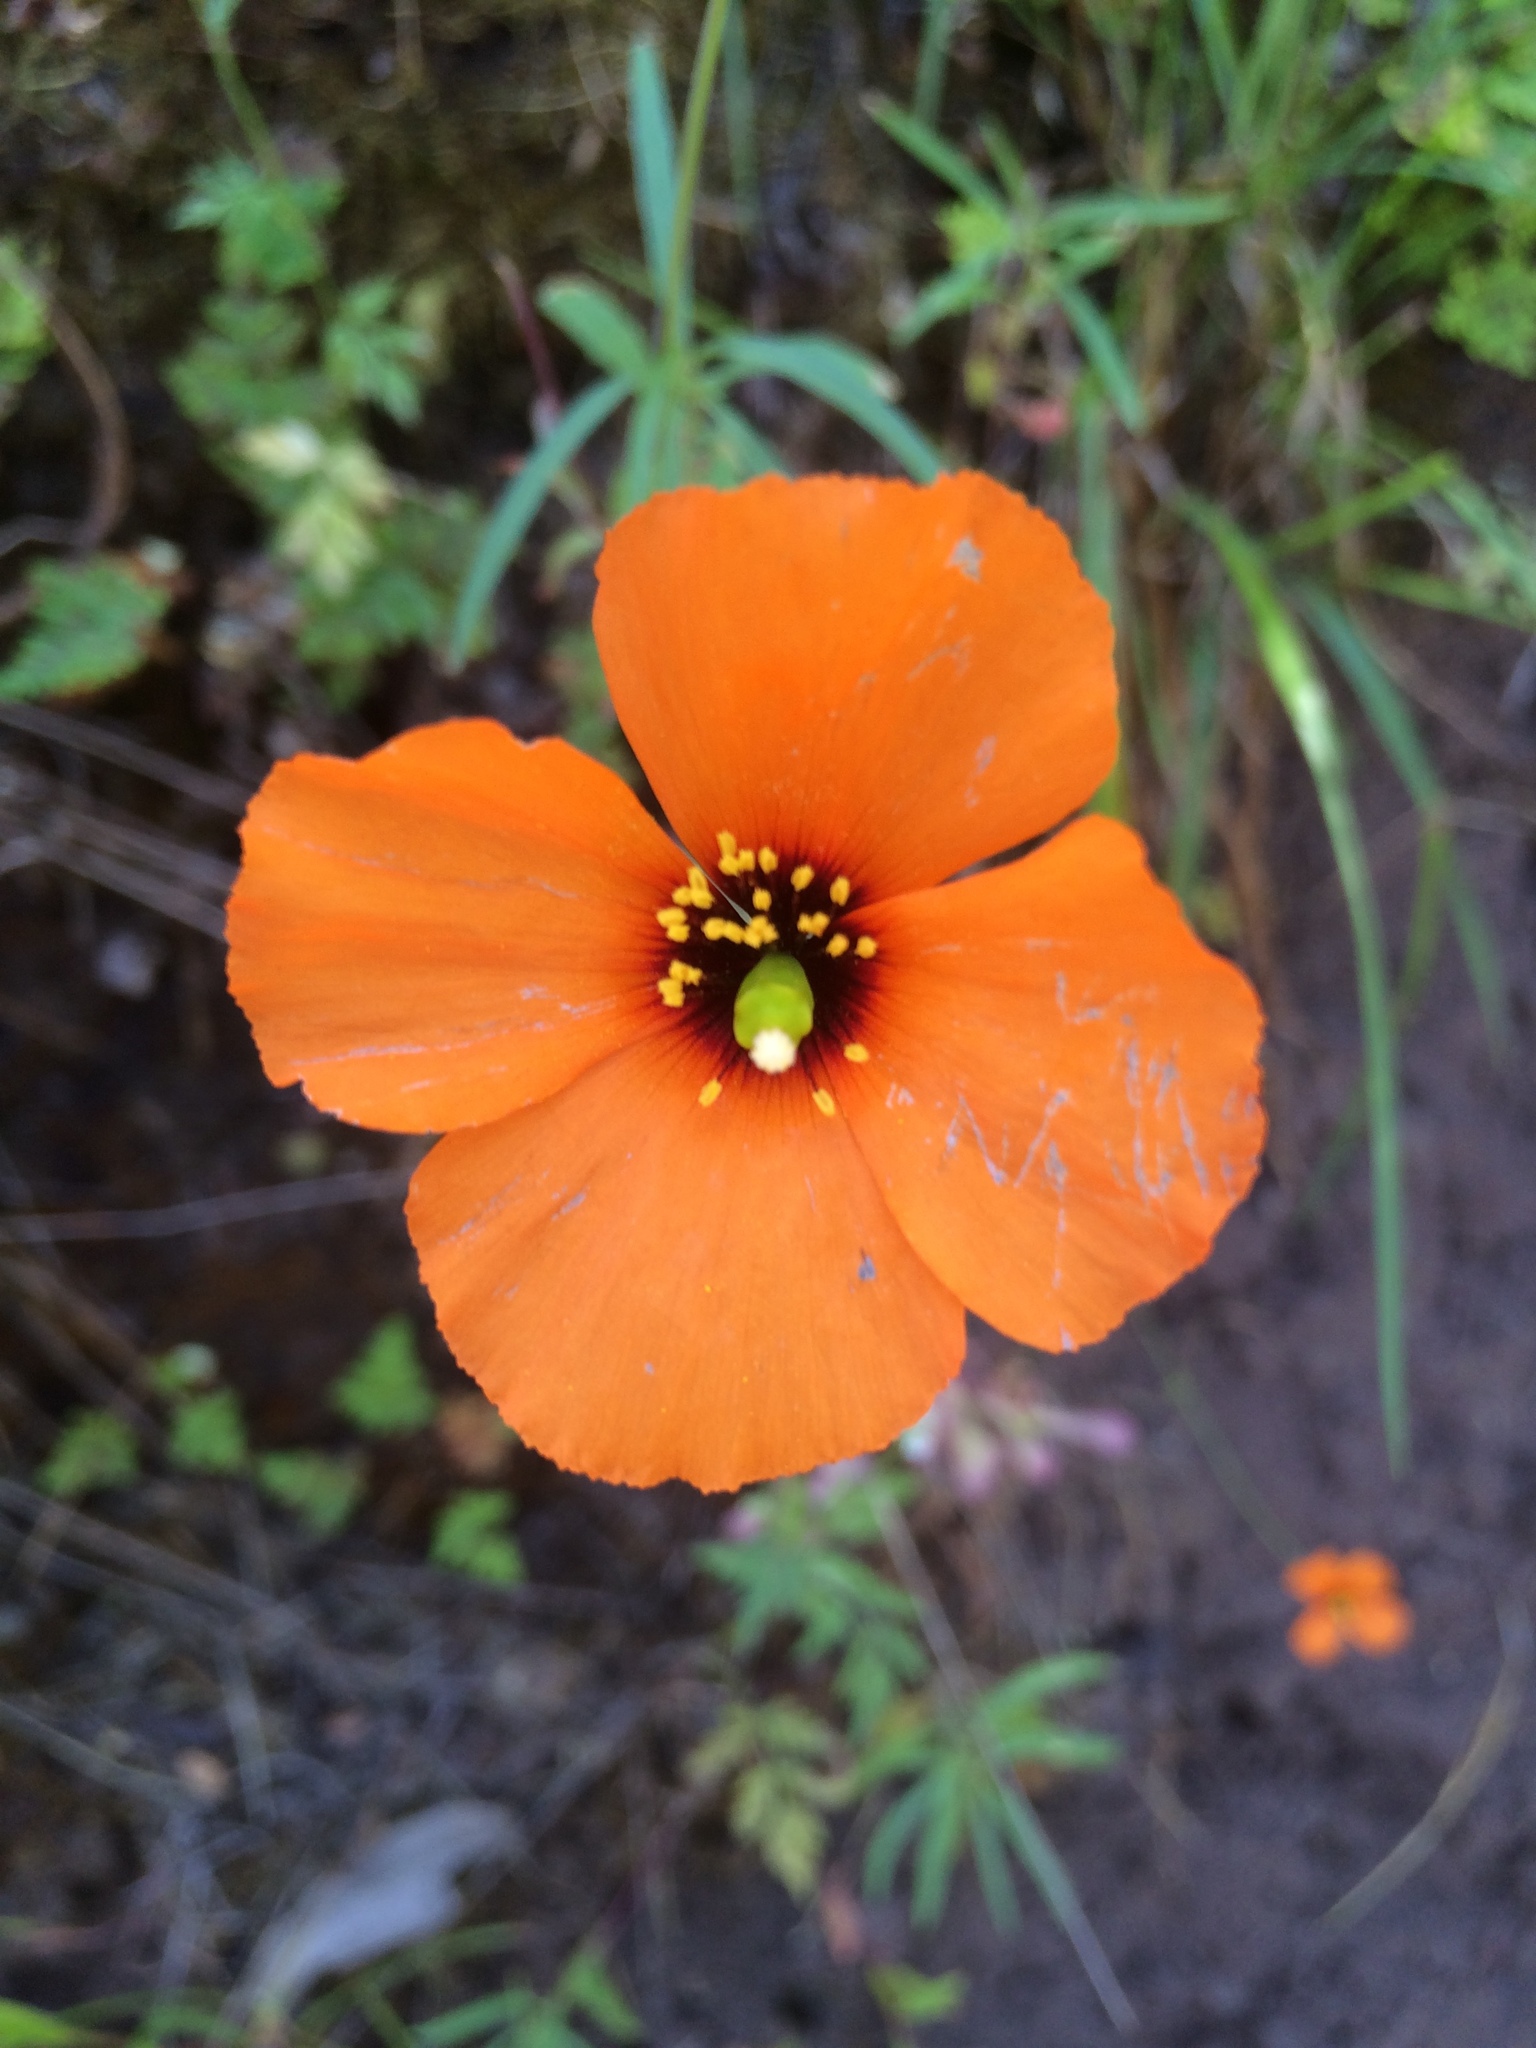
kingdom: Plantae
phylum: Tracheophyta
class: Magnoliopsida
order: Ranunculales
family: Papaveraceae
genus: Stylomecon
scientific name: Stylomecon heterophylla
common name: Flaming-poppy
